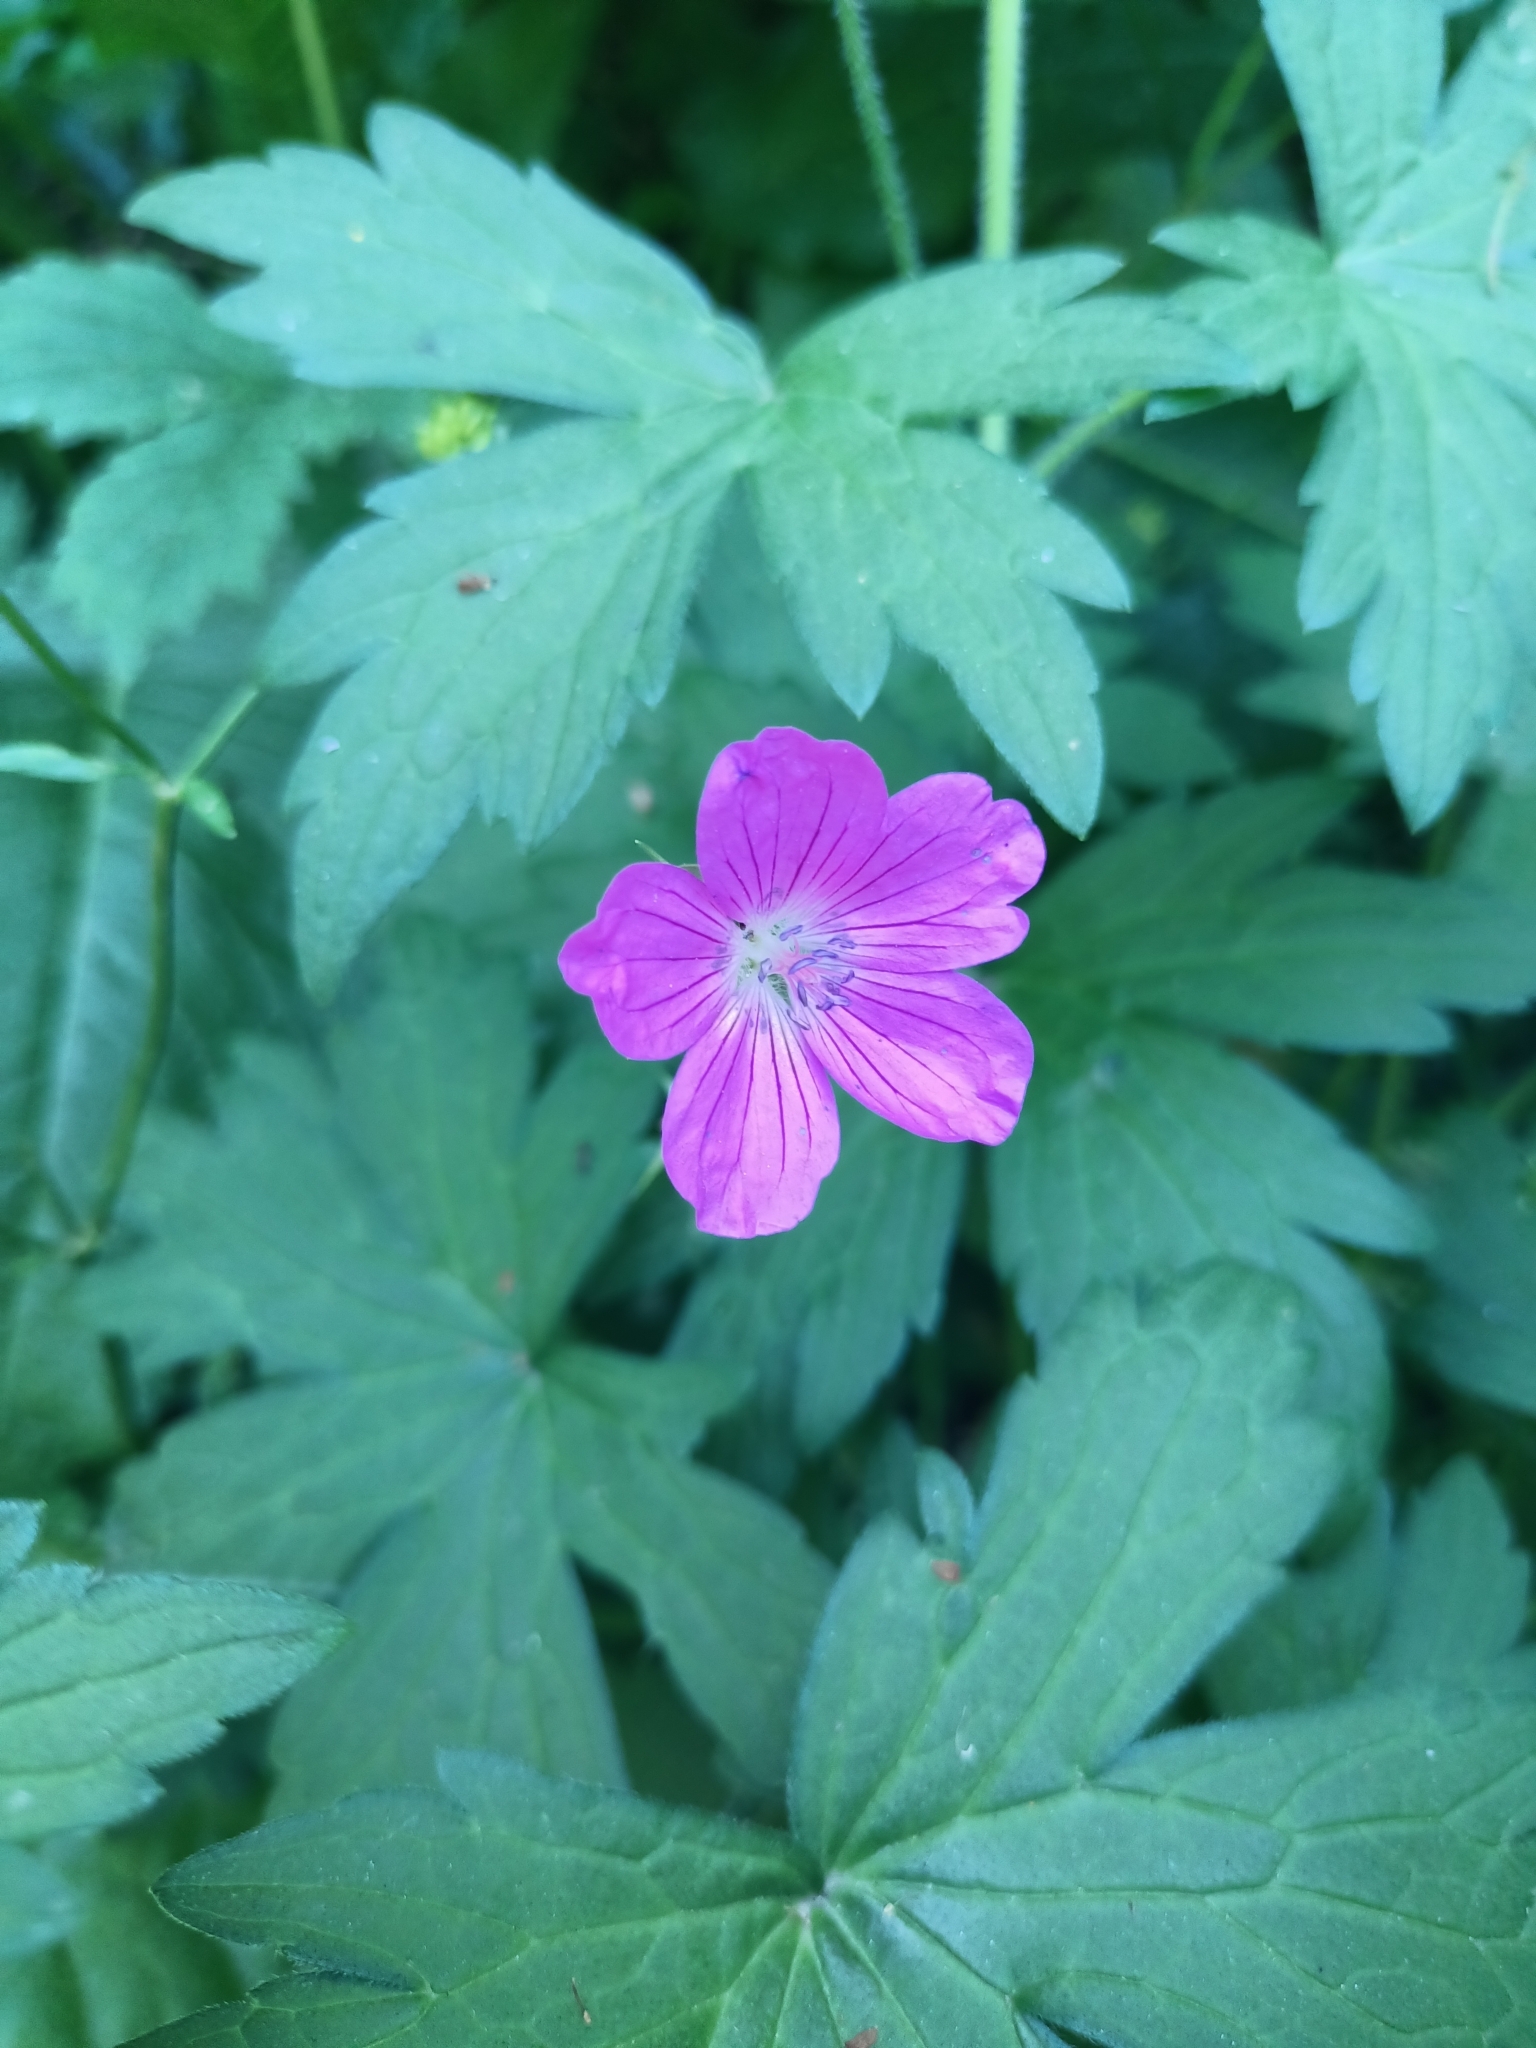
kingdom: Plantae
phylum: Tracheophyta
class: Magnoliopsida
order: Geraniales
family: Geraniaceae
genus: Geranium
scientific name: Geranium palustre
